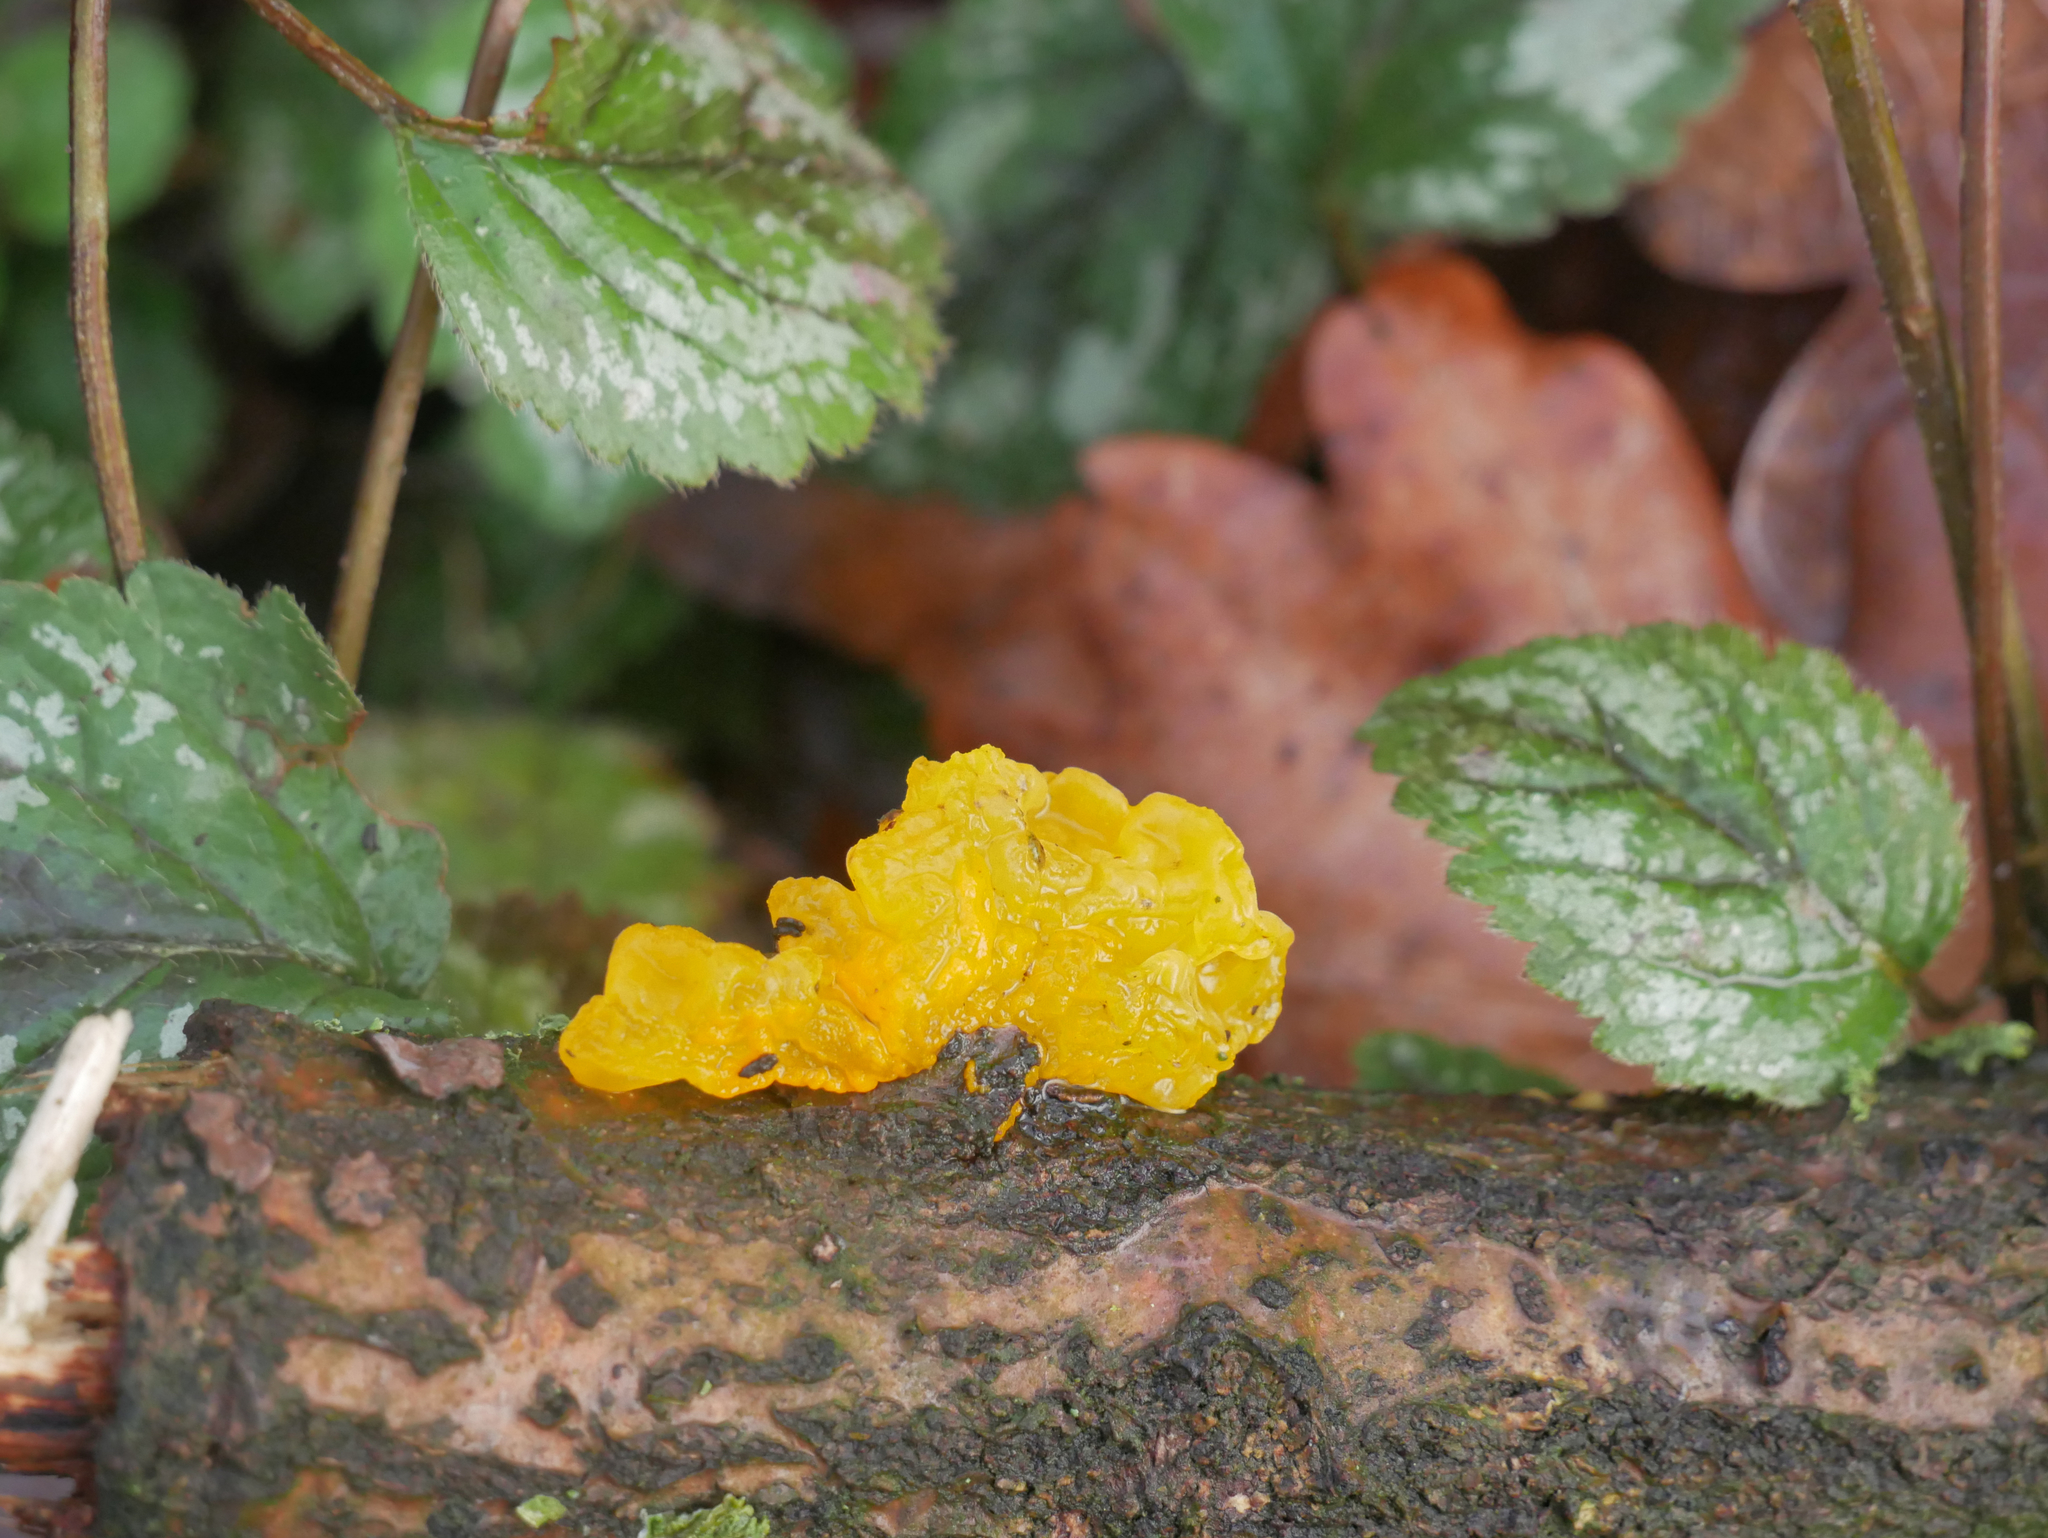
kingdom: Fungi
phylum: Basidiomycota
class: Tremellomycetes
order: Tremellales
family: Tremellaceae
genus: Tremella
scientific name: Tremella mesenterica
